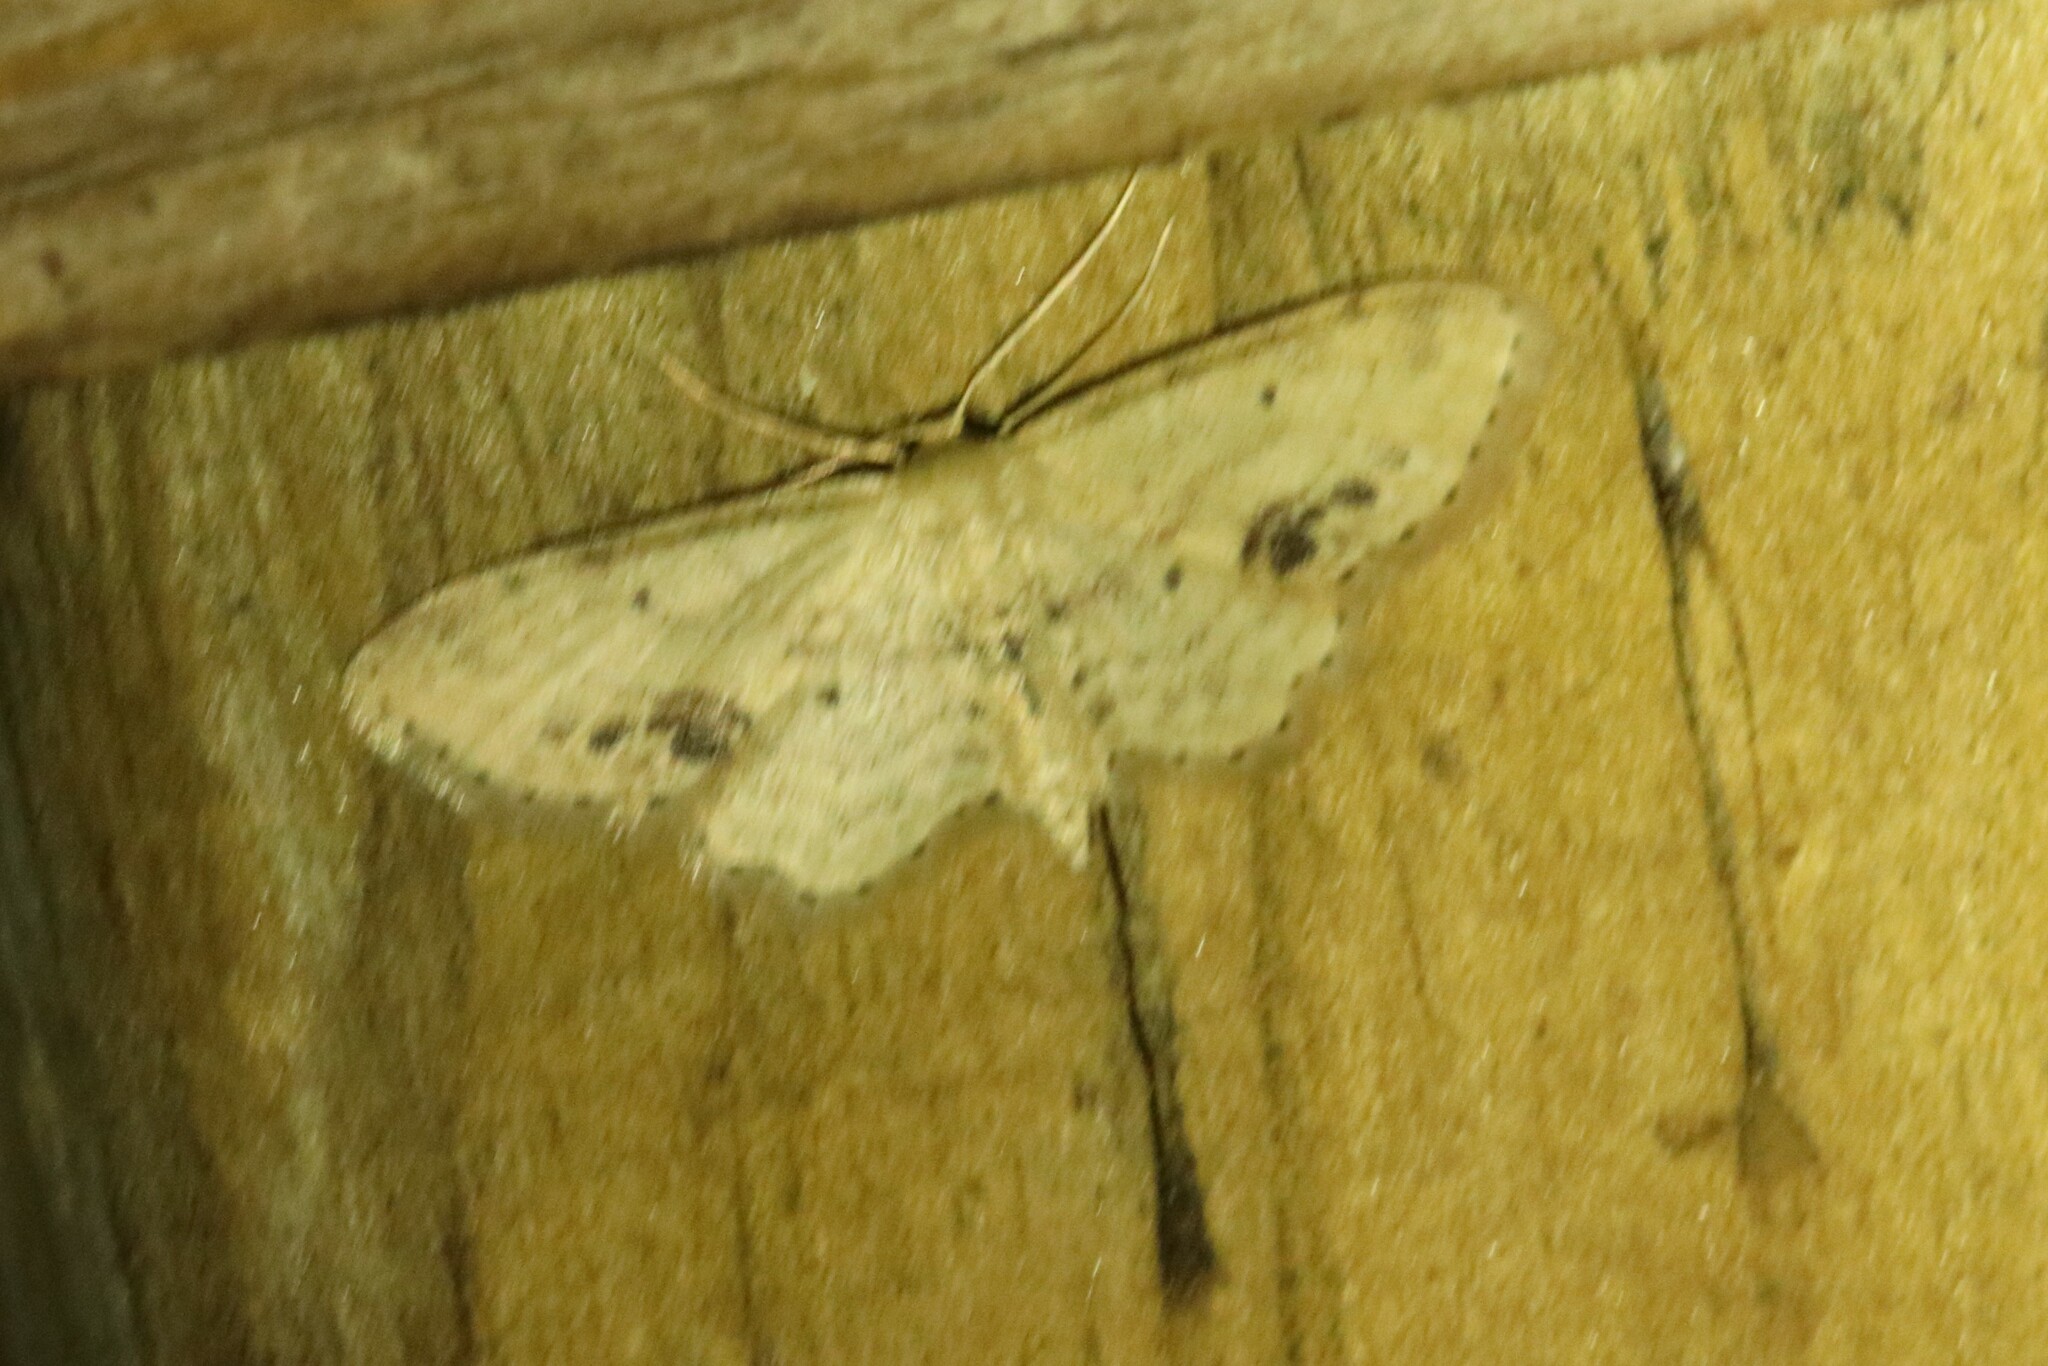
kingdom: Animalia
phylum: Arthropoda
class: Insecta
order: Lepidoptera
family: Geometridae
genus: Idaea
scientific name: Idaea dimidiata
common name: Single-dotted wave
